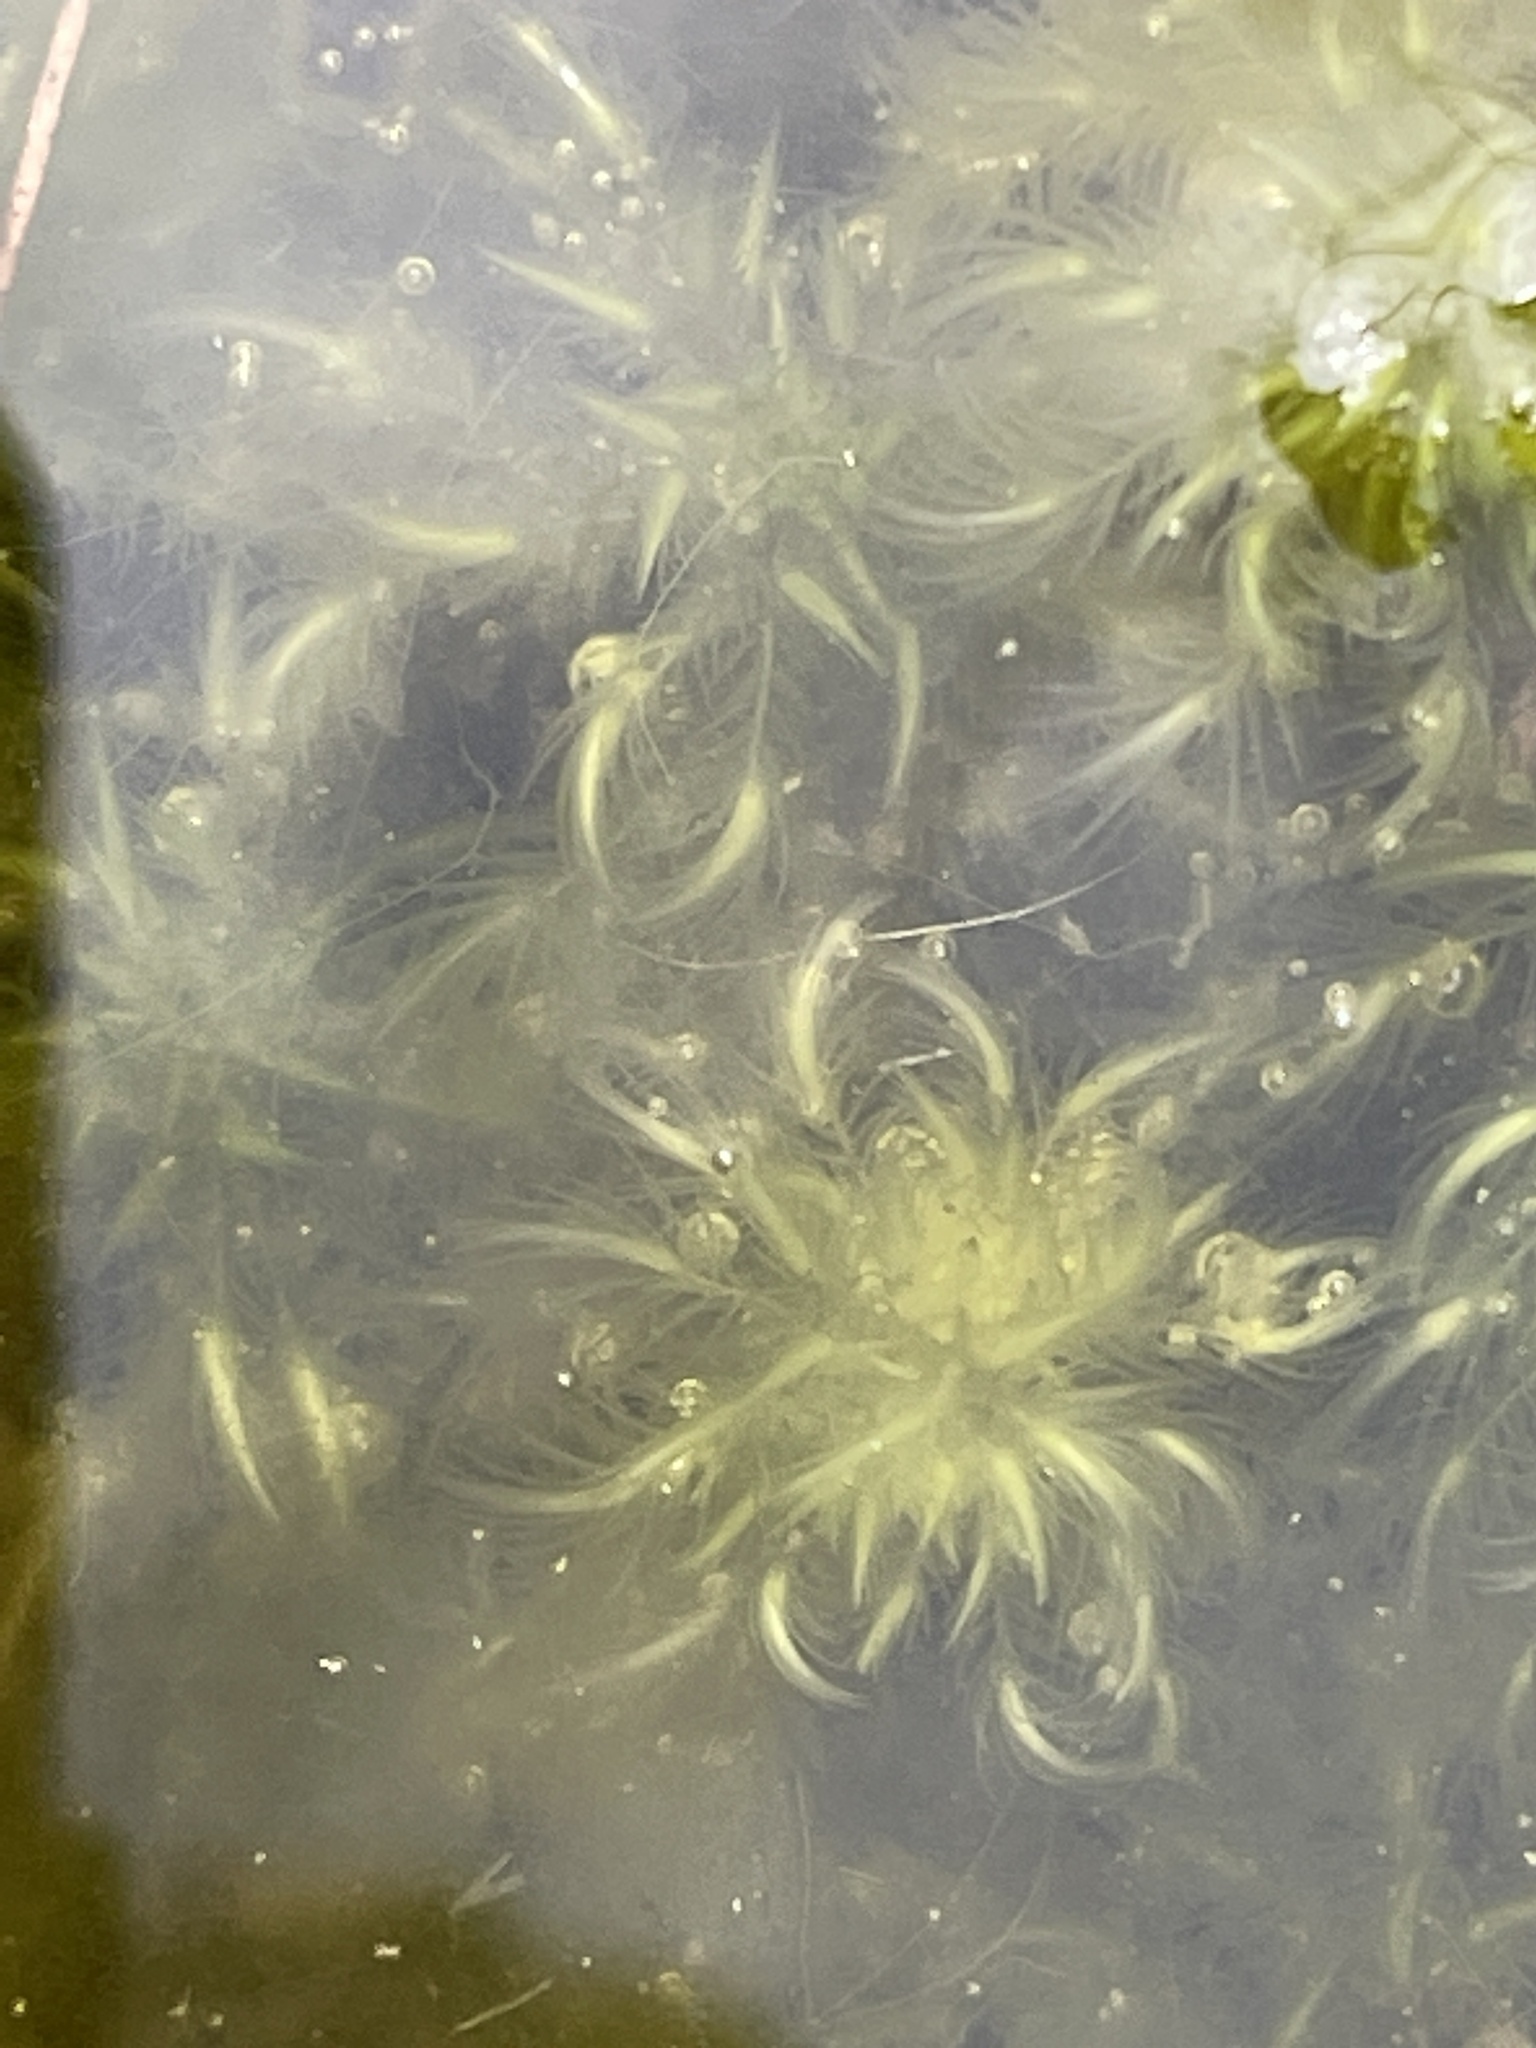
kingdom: Plantae
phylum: Bryophyta
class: Sphagnopsida
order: Sphagnales
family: Sphagnaceae
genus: Sphagnum
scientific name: Sphagnum cuspidatum
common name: Feathery peat moss
